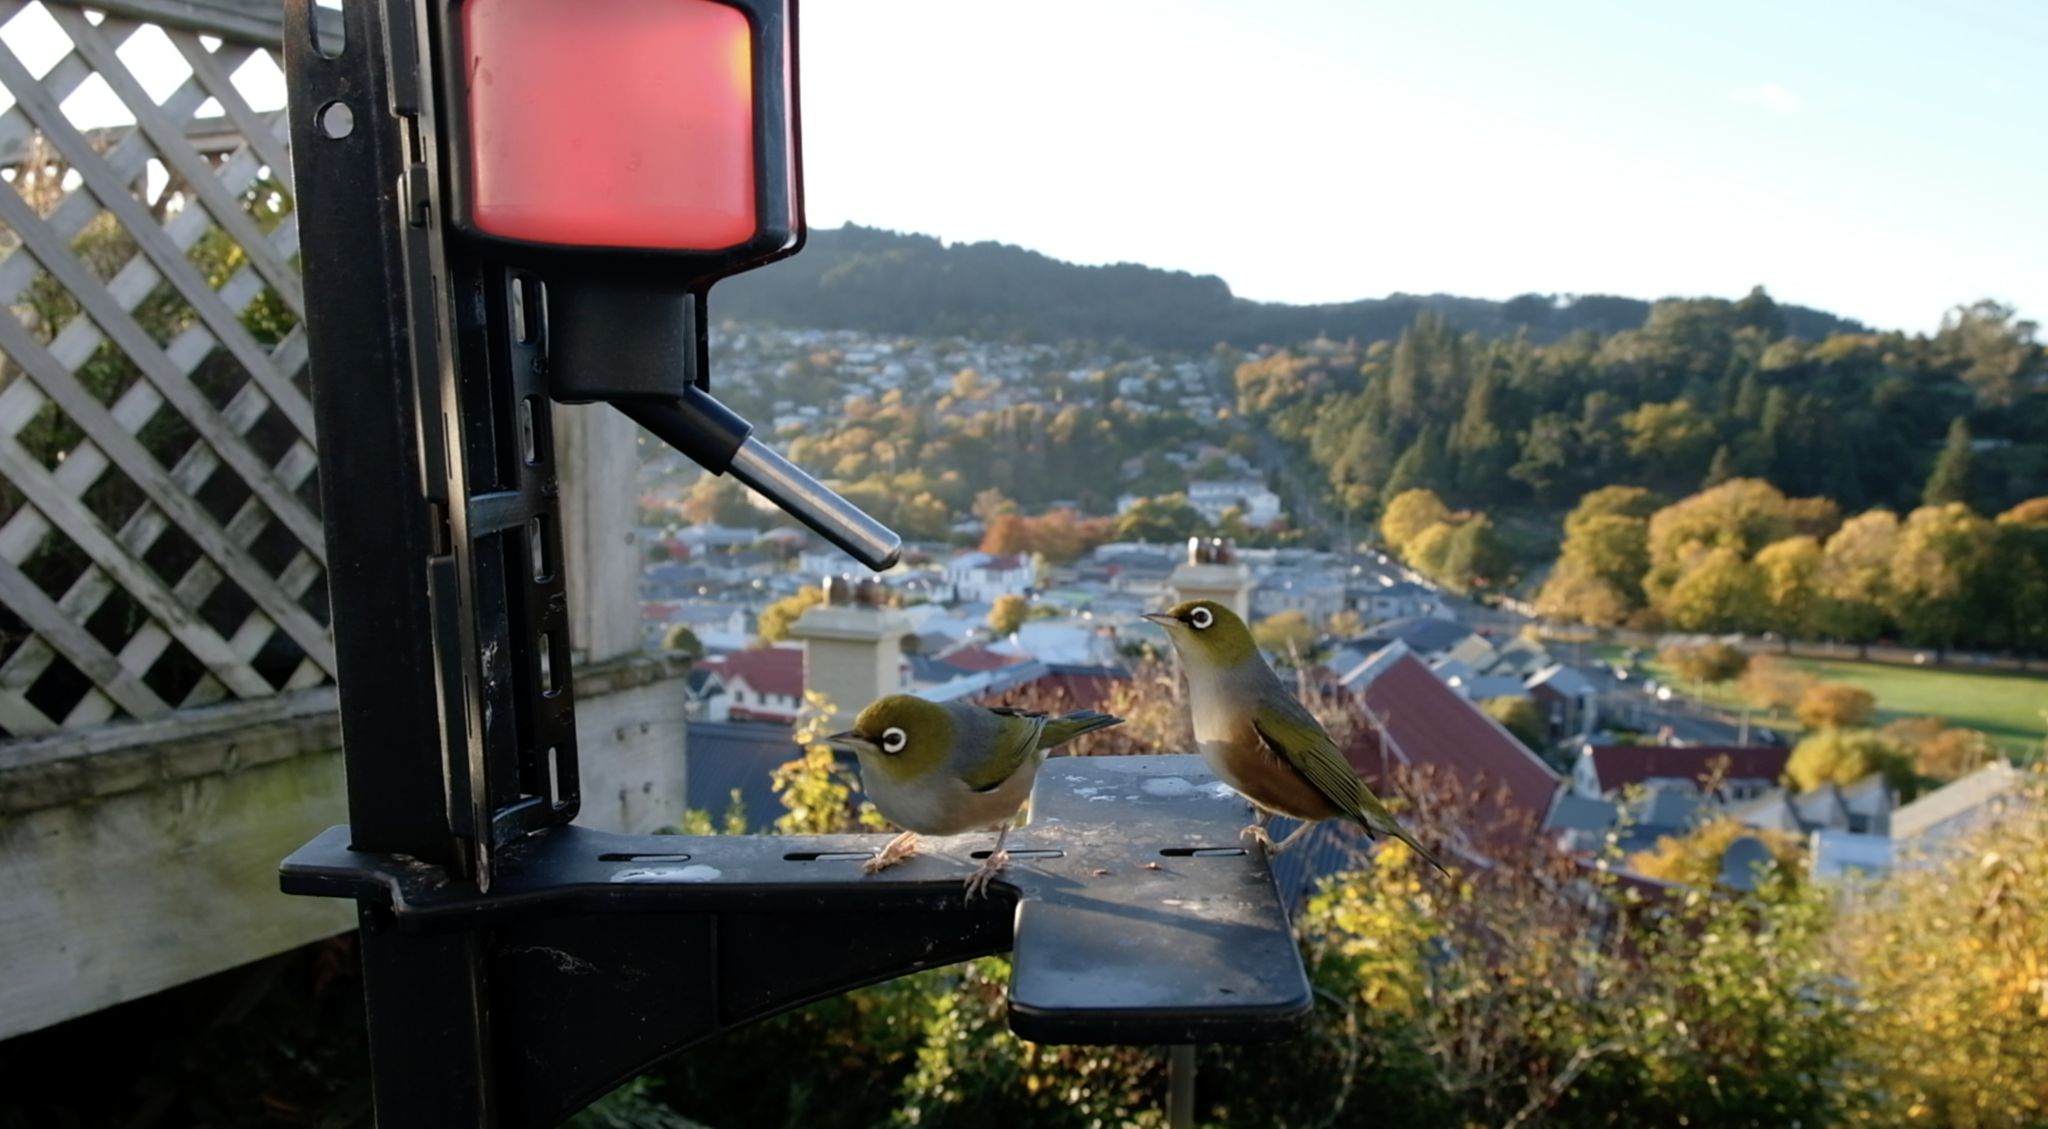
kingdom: Animalia
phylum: Chordata
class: Aves
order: Passeriformes
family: Zosteropidae
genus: Zosterops
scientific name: Zosterops lateralis
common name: Silvereye
